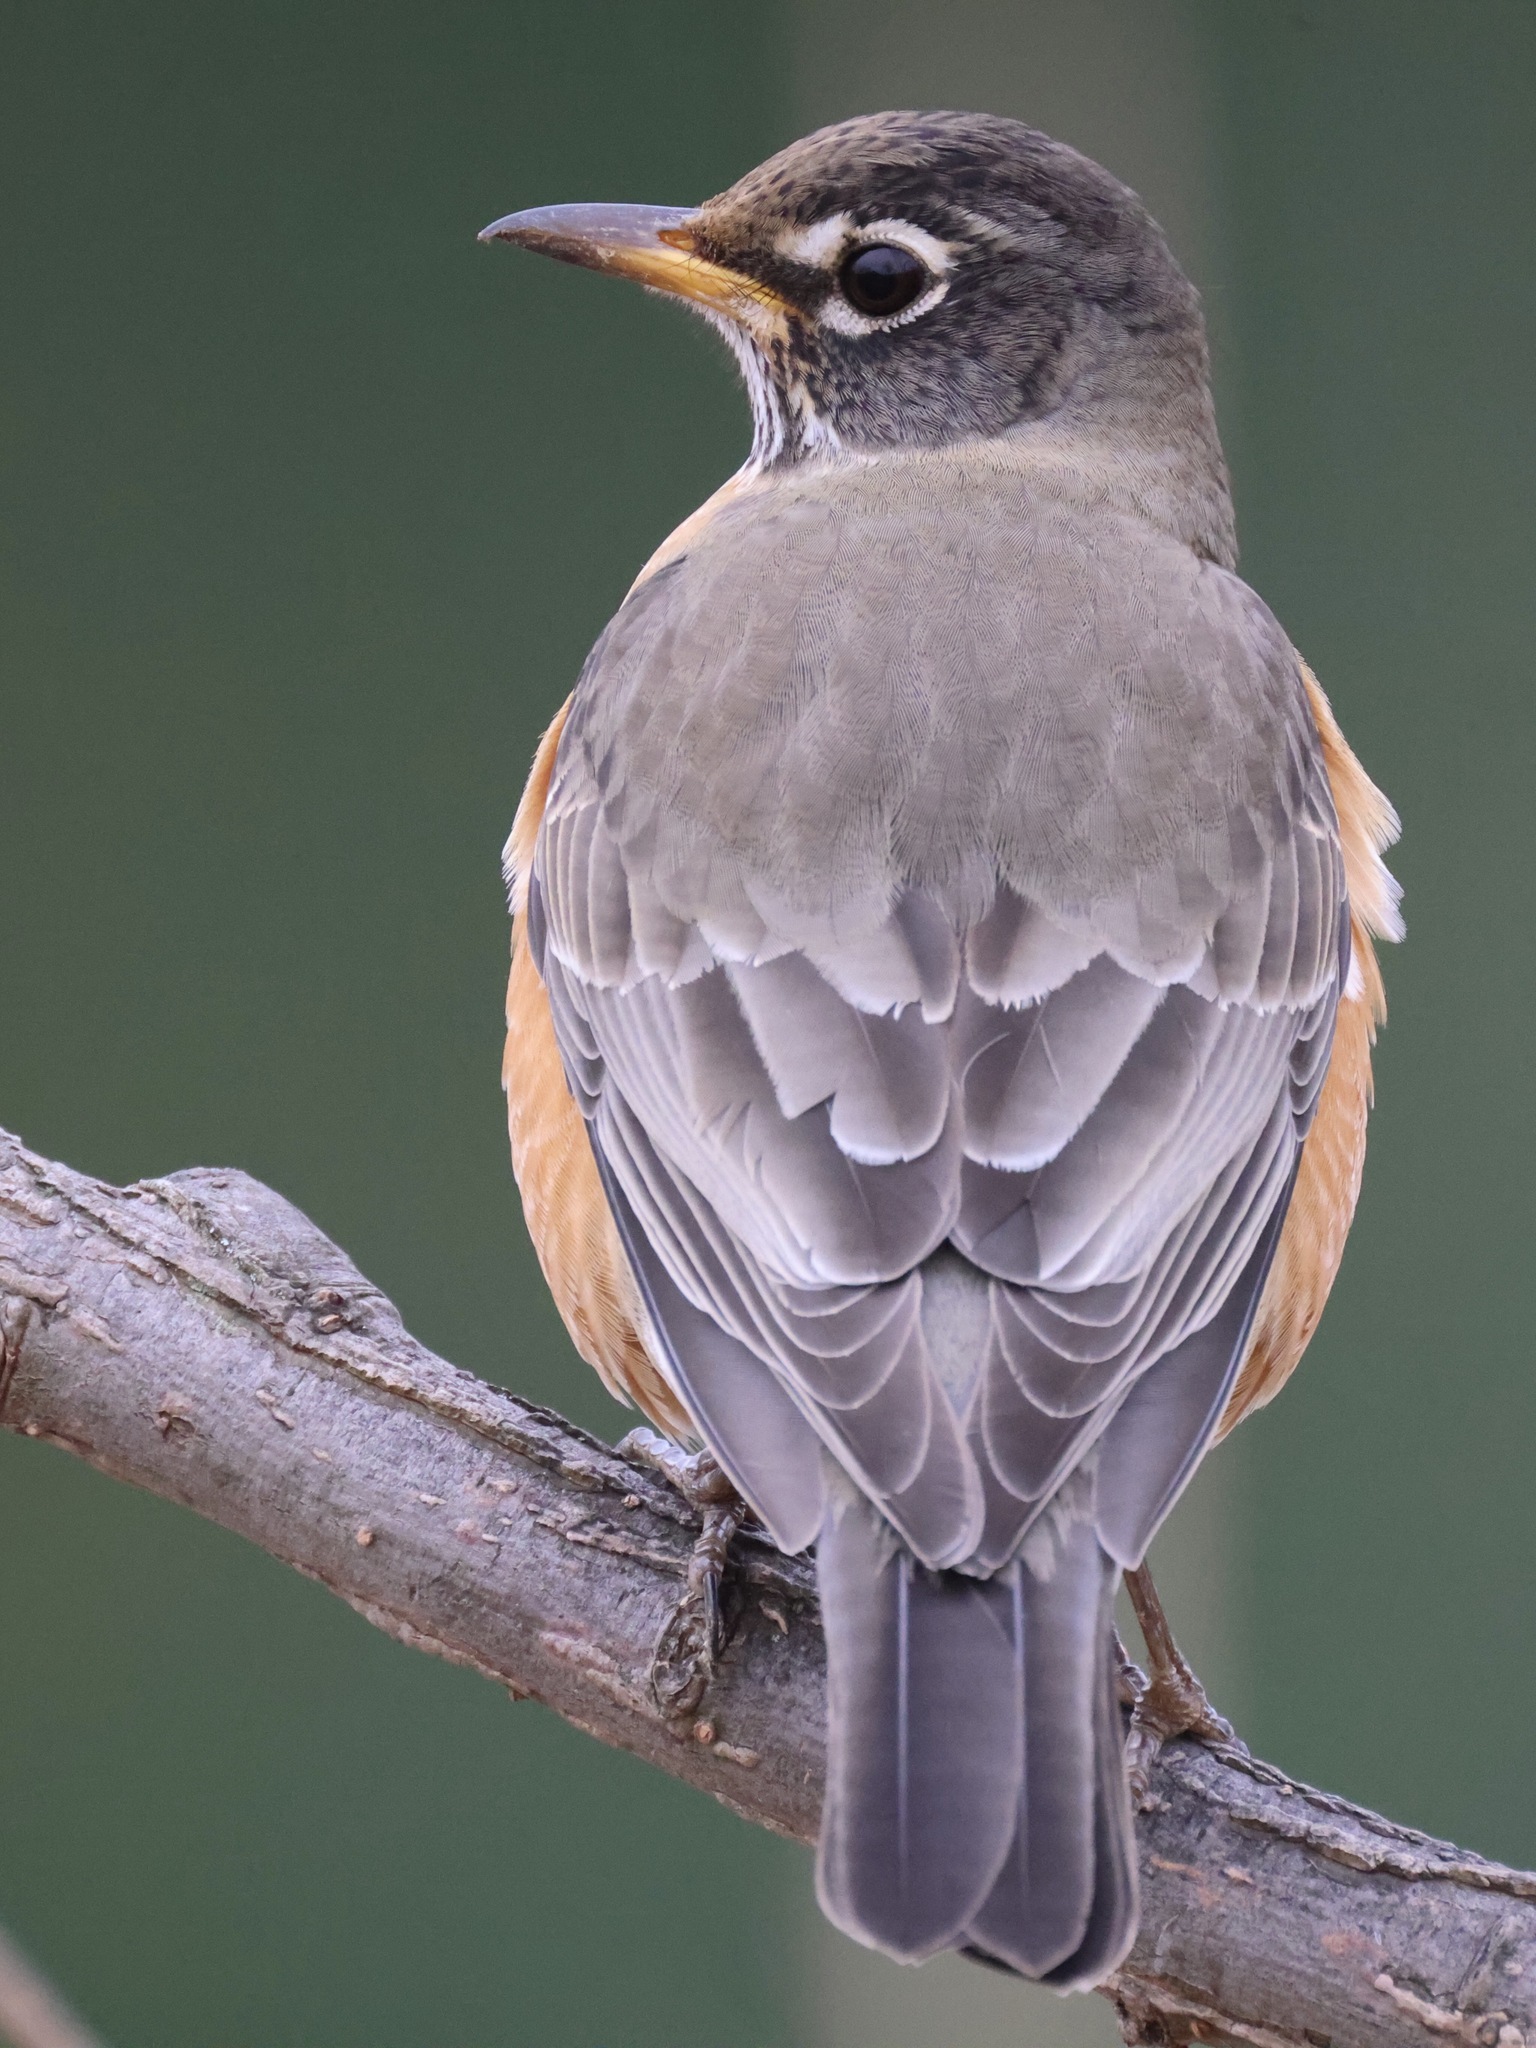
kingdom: Animalia
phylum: Chordata
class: Aves
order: Passeriformes
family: Turdidae
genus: Turdus
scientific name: Turdus migratorius
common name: American robin
